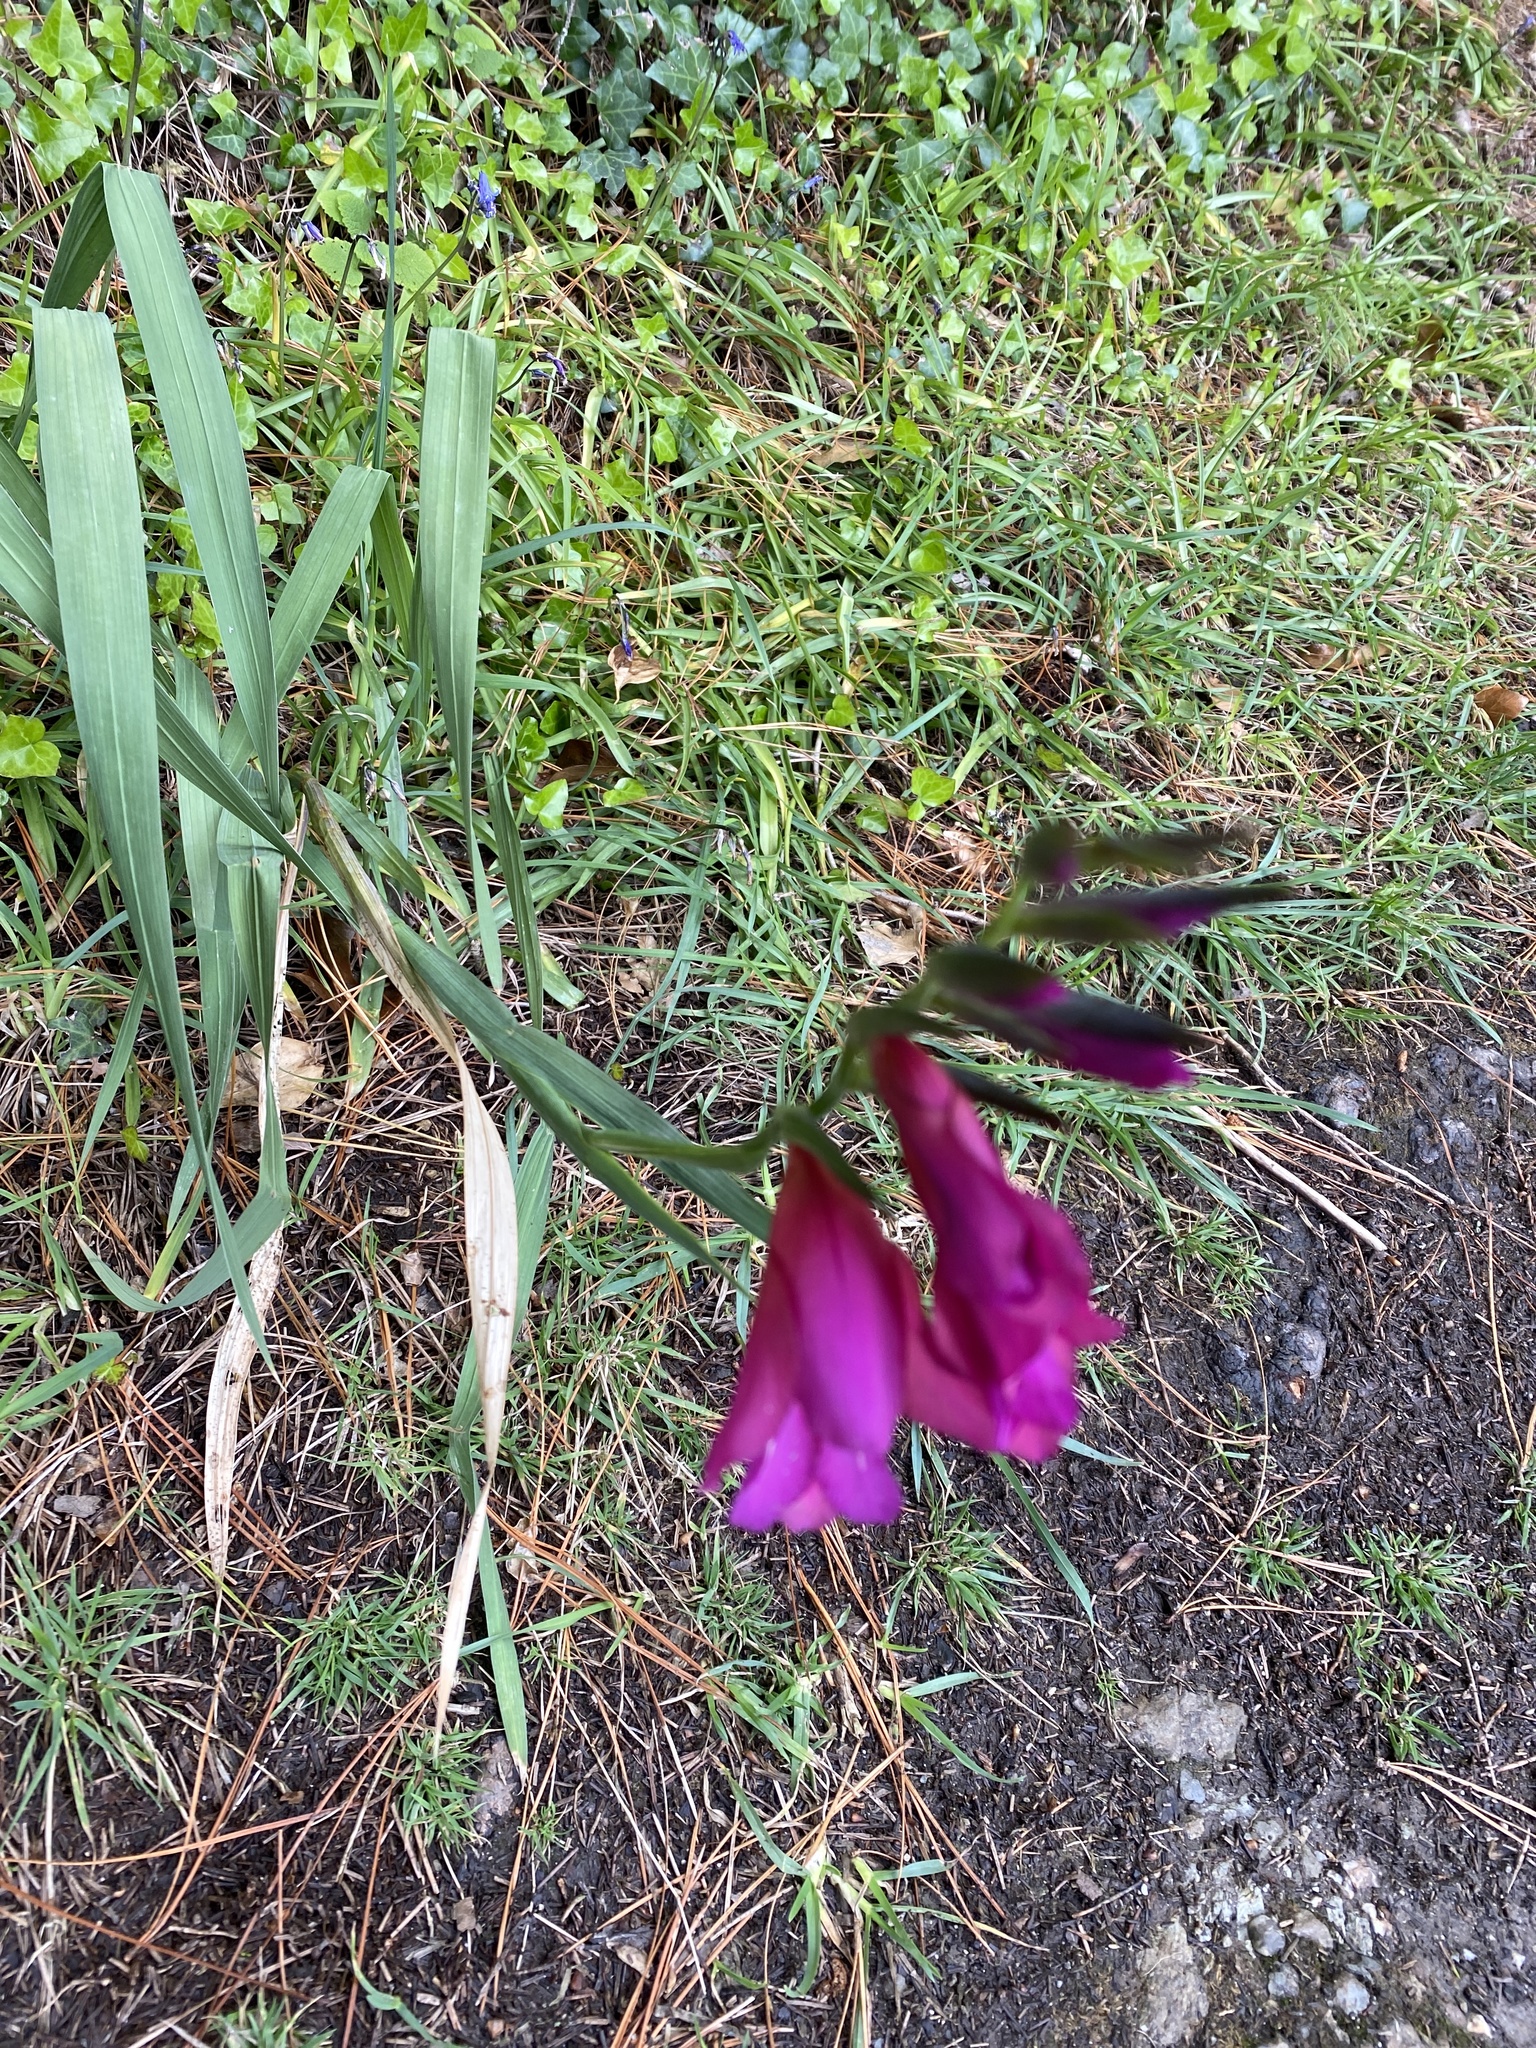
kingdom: Plantae
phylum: Tracheophyta
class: Liliopsida
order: Asparagales
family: Iridaceae
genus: Gladiolus
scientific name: Gladiolus communis
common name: Eastern gladiolus
